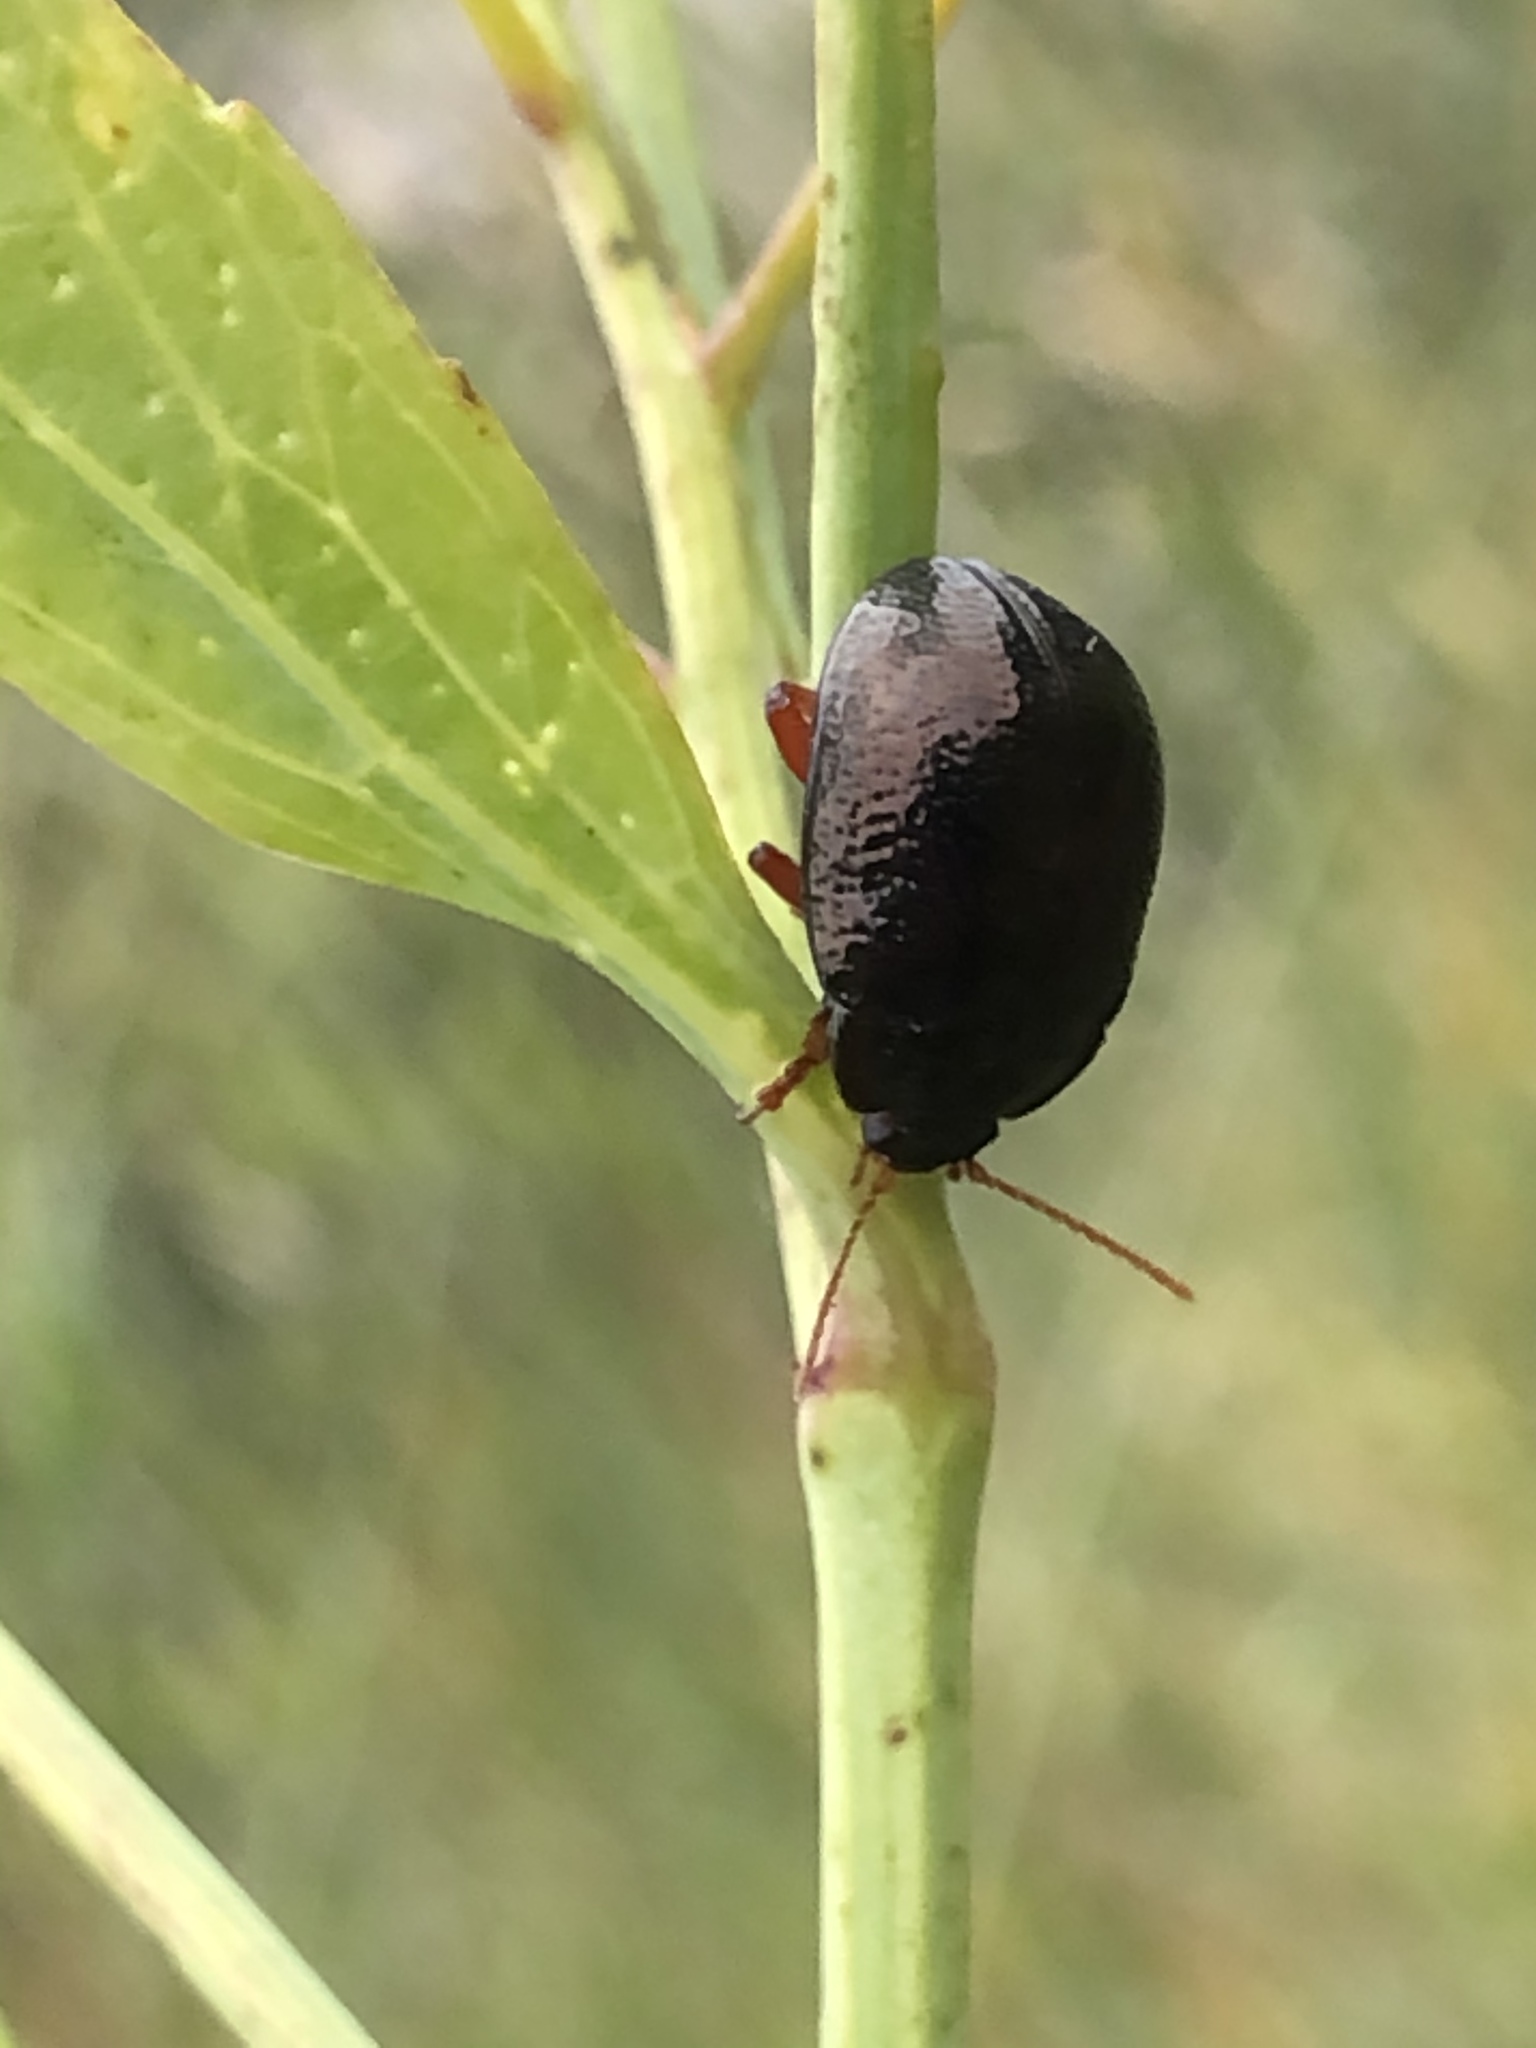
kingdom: Animalia
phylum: Arthropoda
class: Insecta
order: Coleoptera
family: Chrysomelidae
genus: Chrysolina
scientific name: Chrysolina bankii
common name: Leaf beetle
